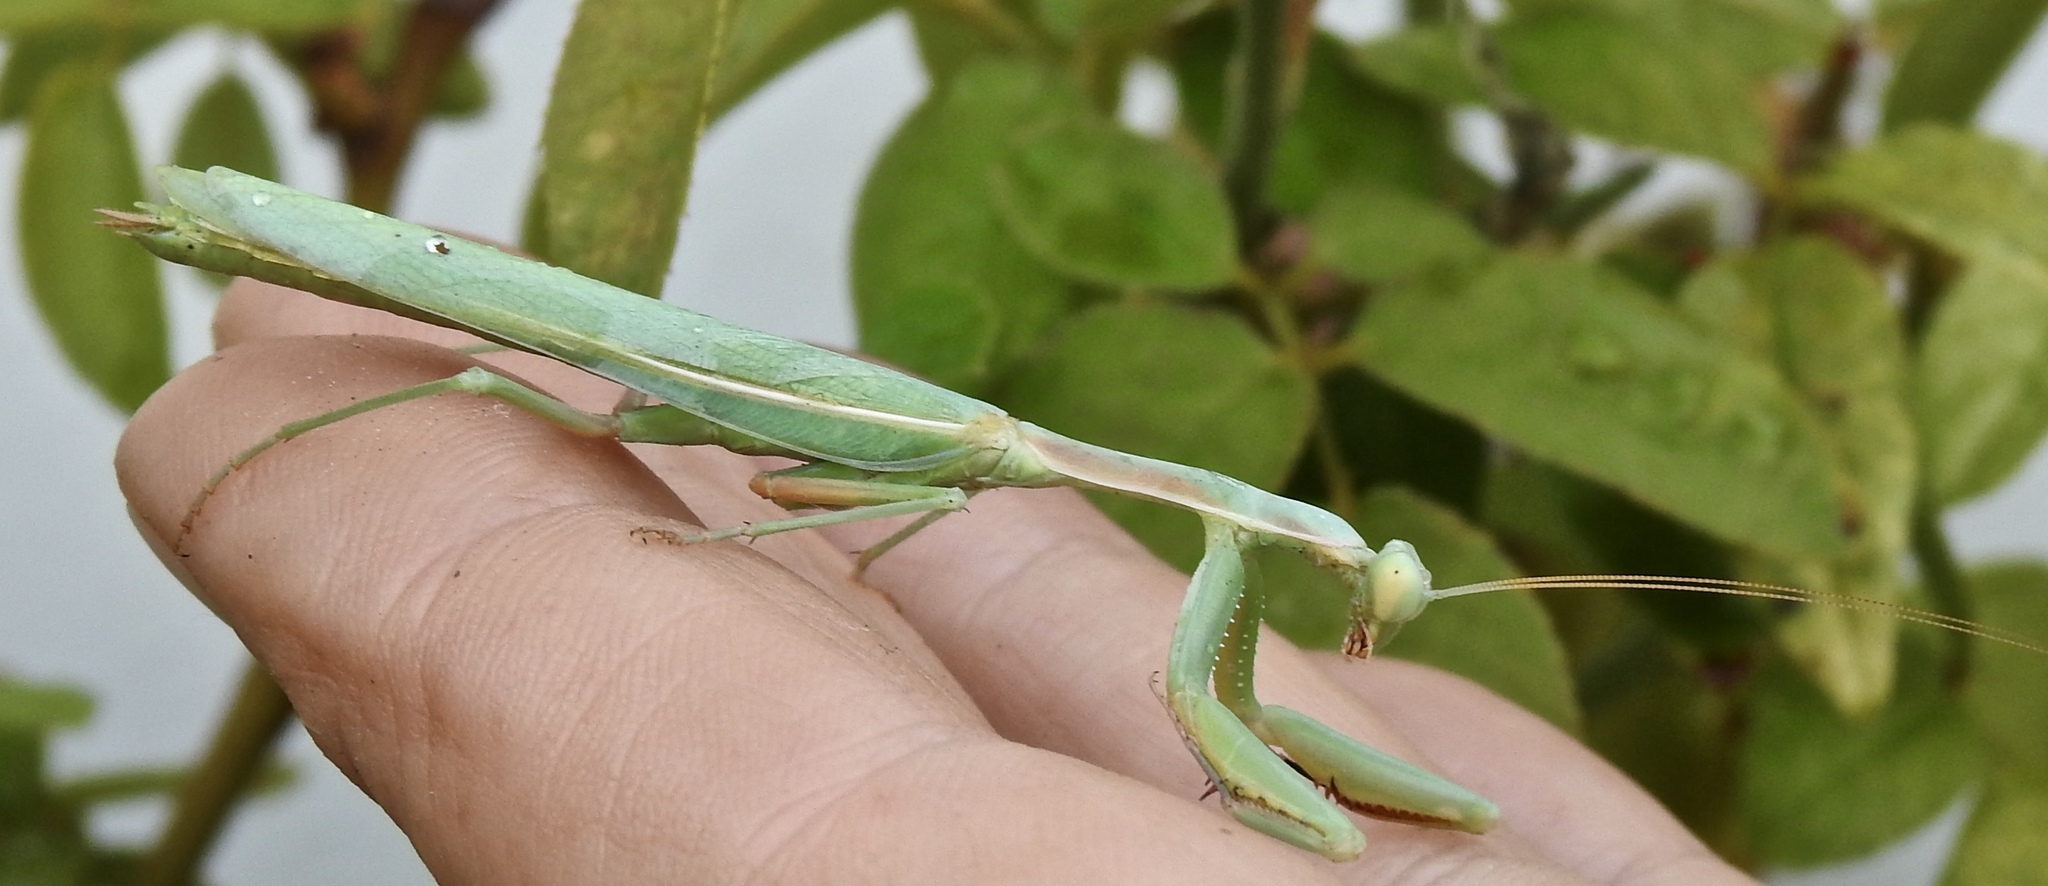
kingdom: Animalia
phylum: Arthropoda
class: Insecta
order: Mantodea
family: Eremiaphilidae
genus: Iris
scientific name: Iris oratoria
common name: Mediterranean mantis
